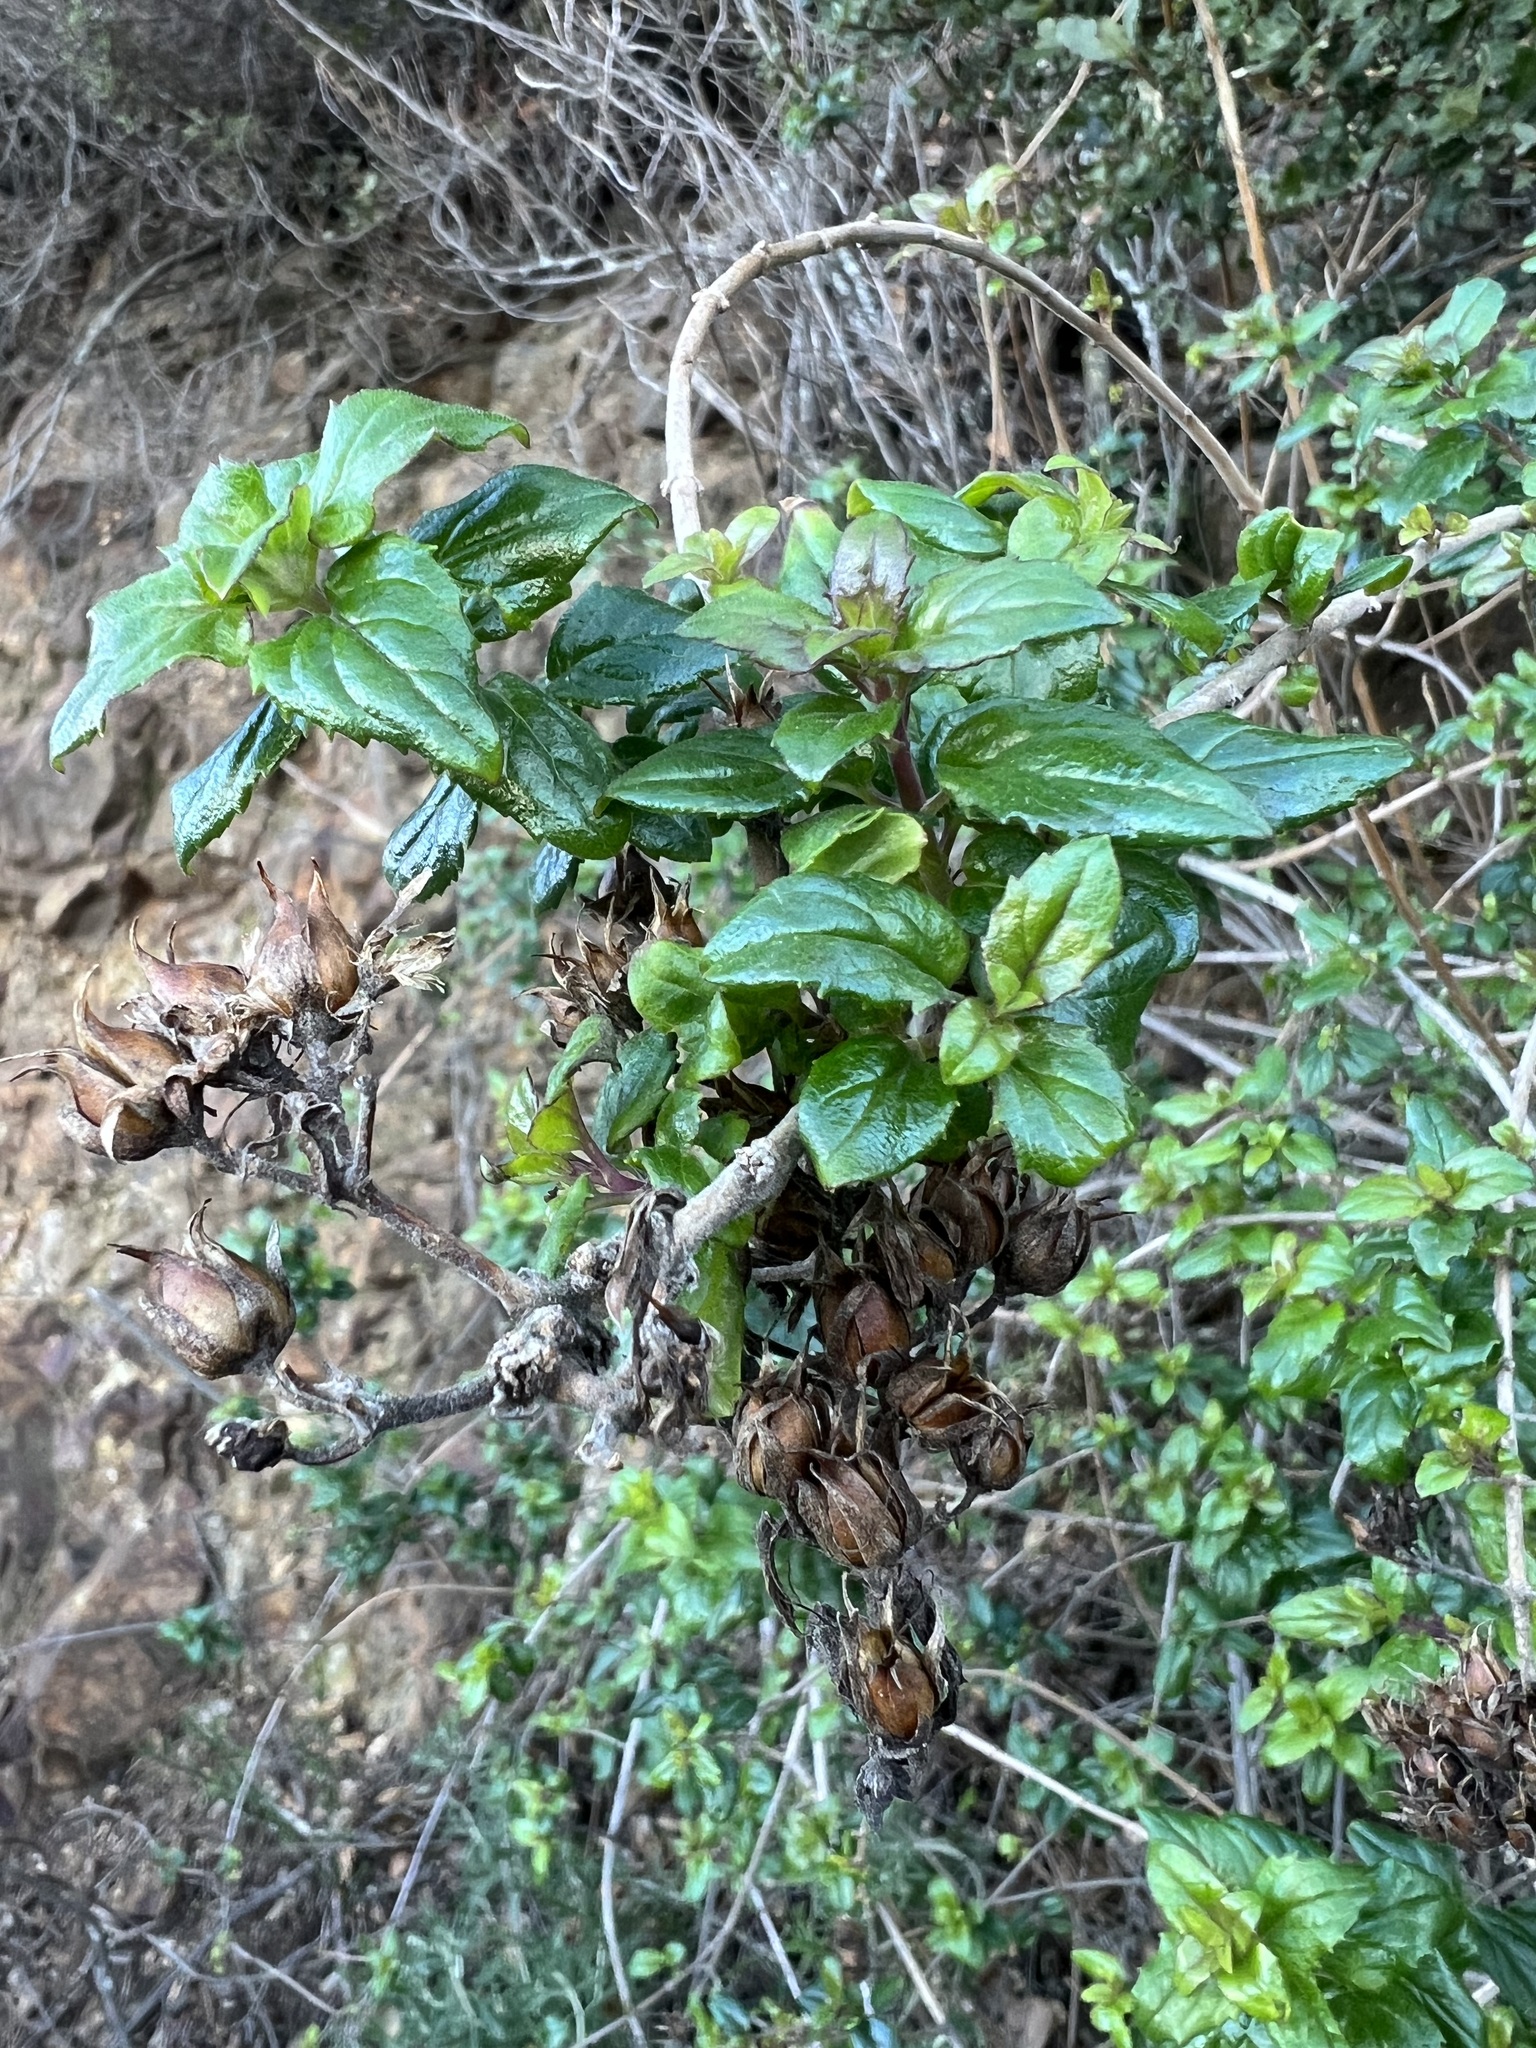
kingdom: Plantae
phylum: Tracheophyta
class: Magnoliopsida
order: Lamiales
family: Plantaginaceae
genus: Keckiella
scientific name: Keckiella cordifolia
